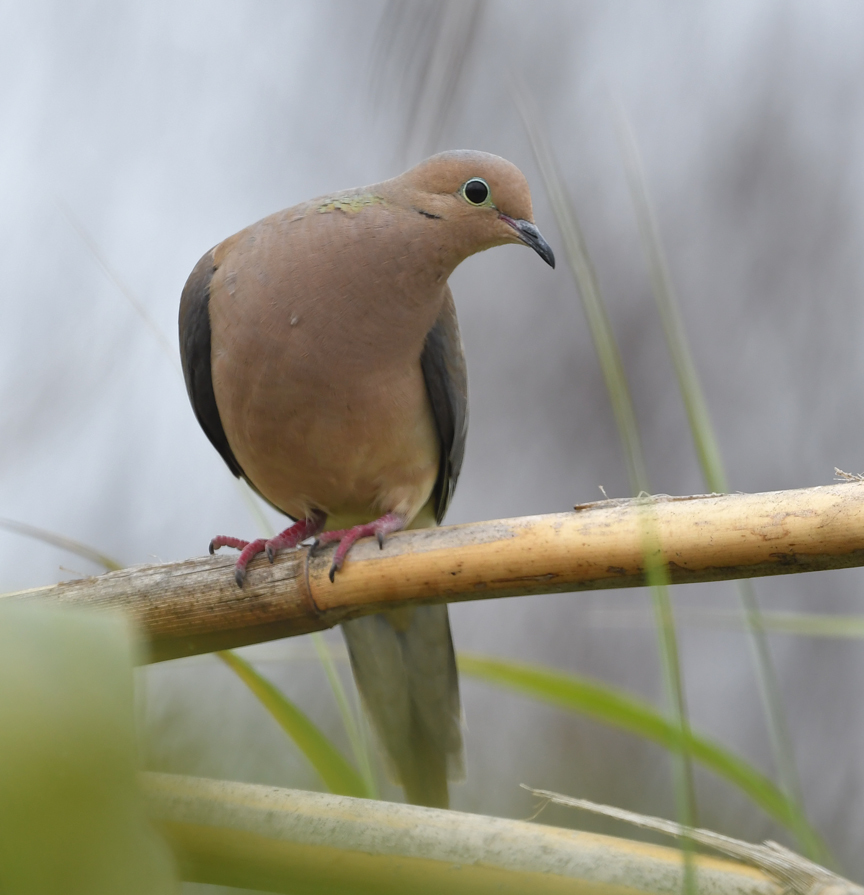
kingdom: Animalia
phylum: Chordata
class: Aves
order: Columbiformes
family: Columbidae
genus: Zenaida
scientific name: Zenaida macroura
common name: Mourning dove
